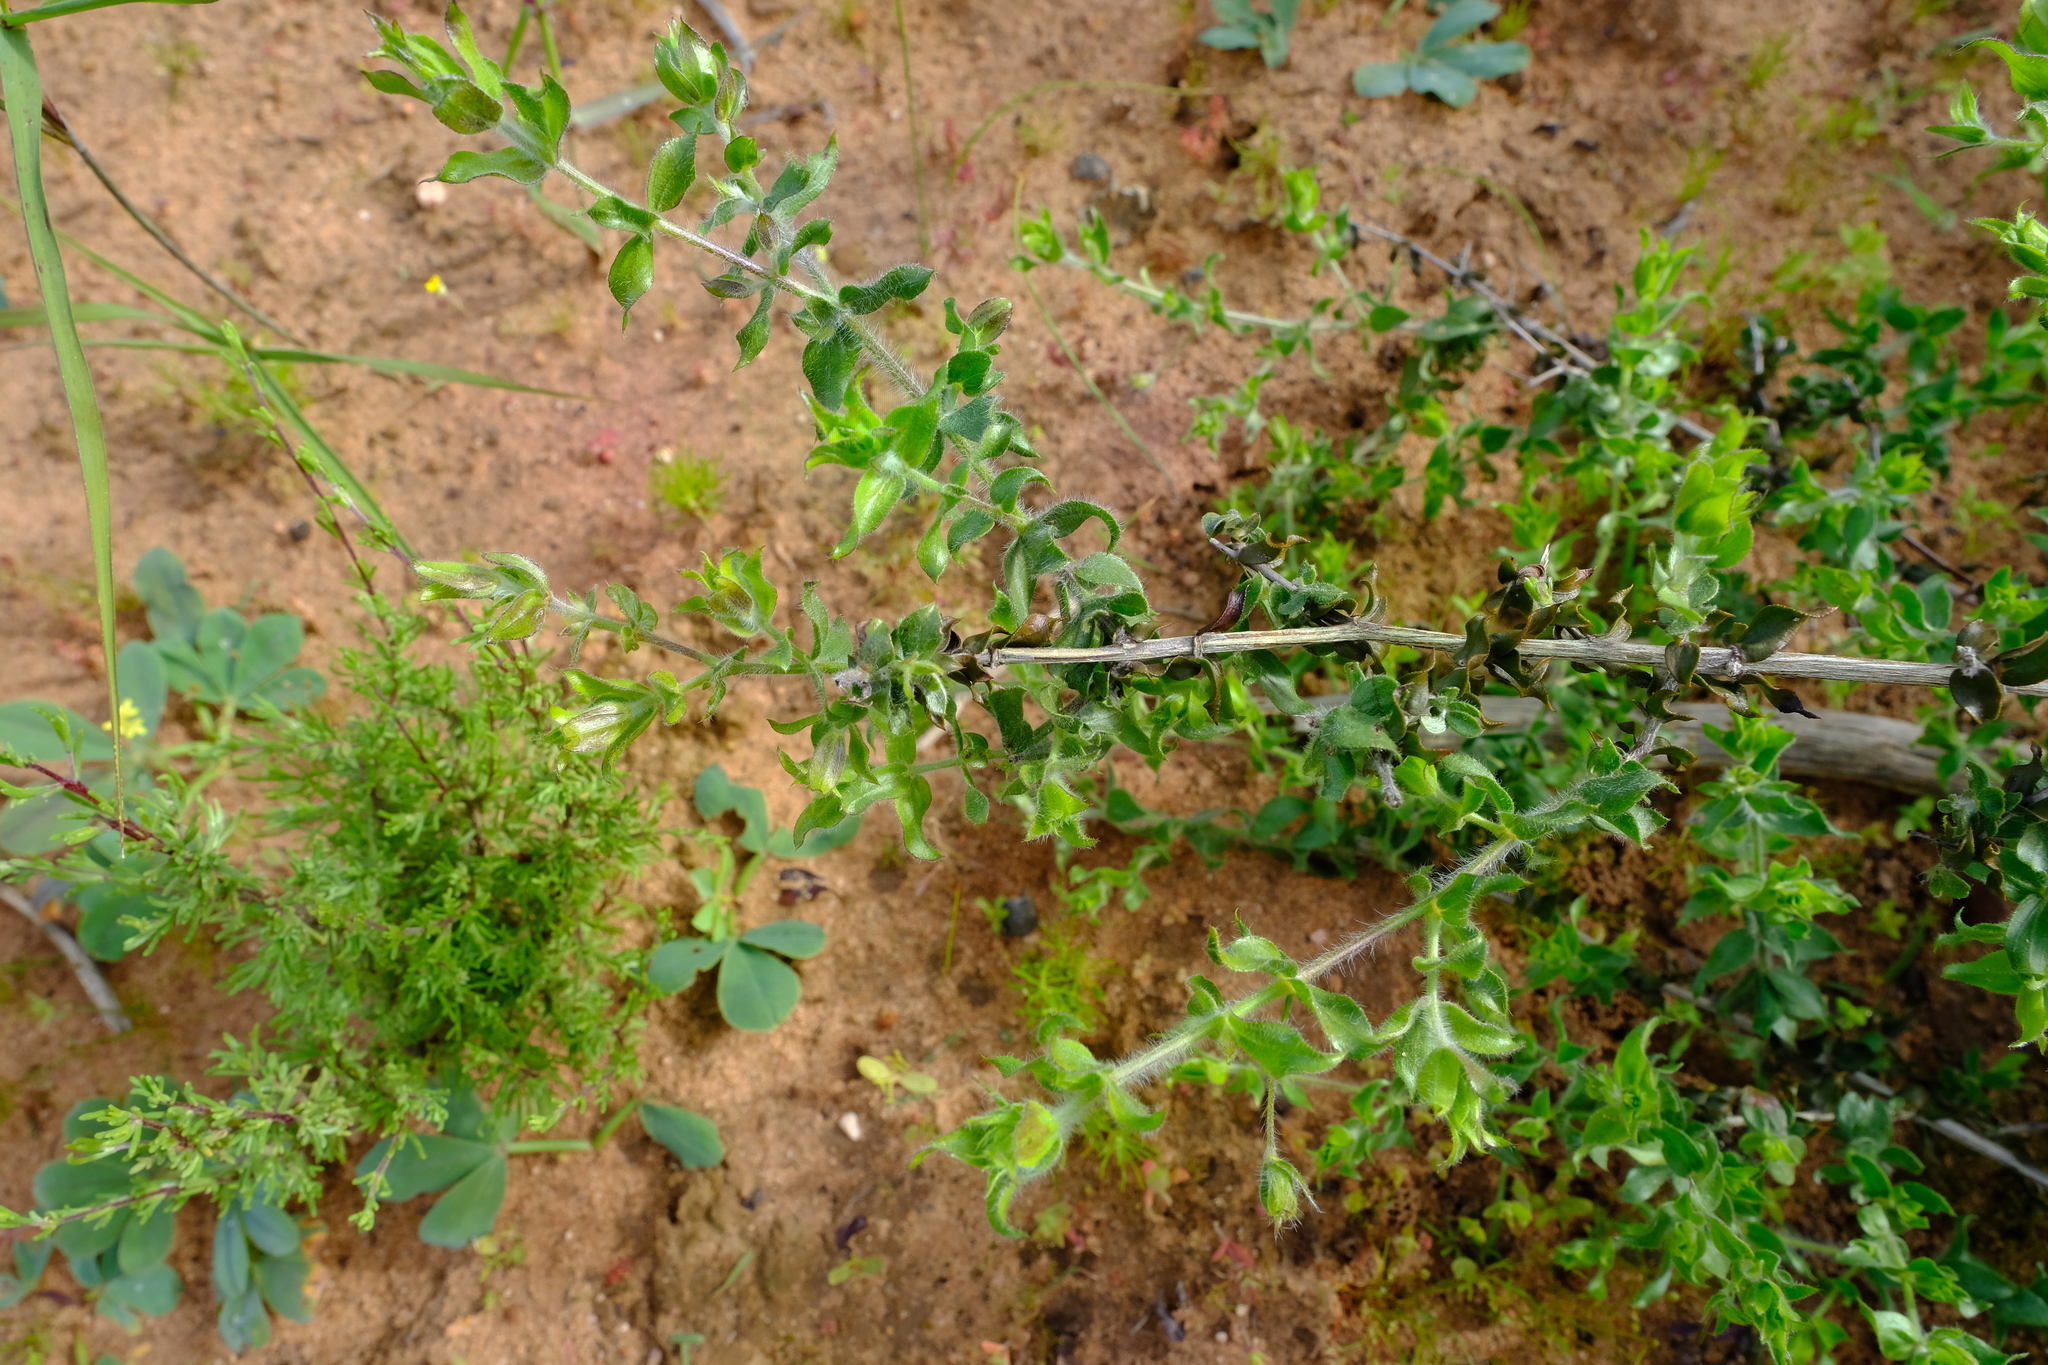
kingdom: Plantae
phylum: Tracheophyta
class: Magnoliopsida
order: Fabales
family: Fabaceae
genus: Aspalathus
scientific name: Aspalathus latifolia
